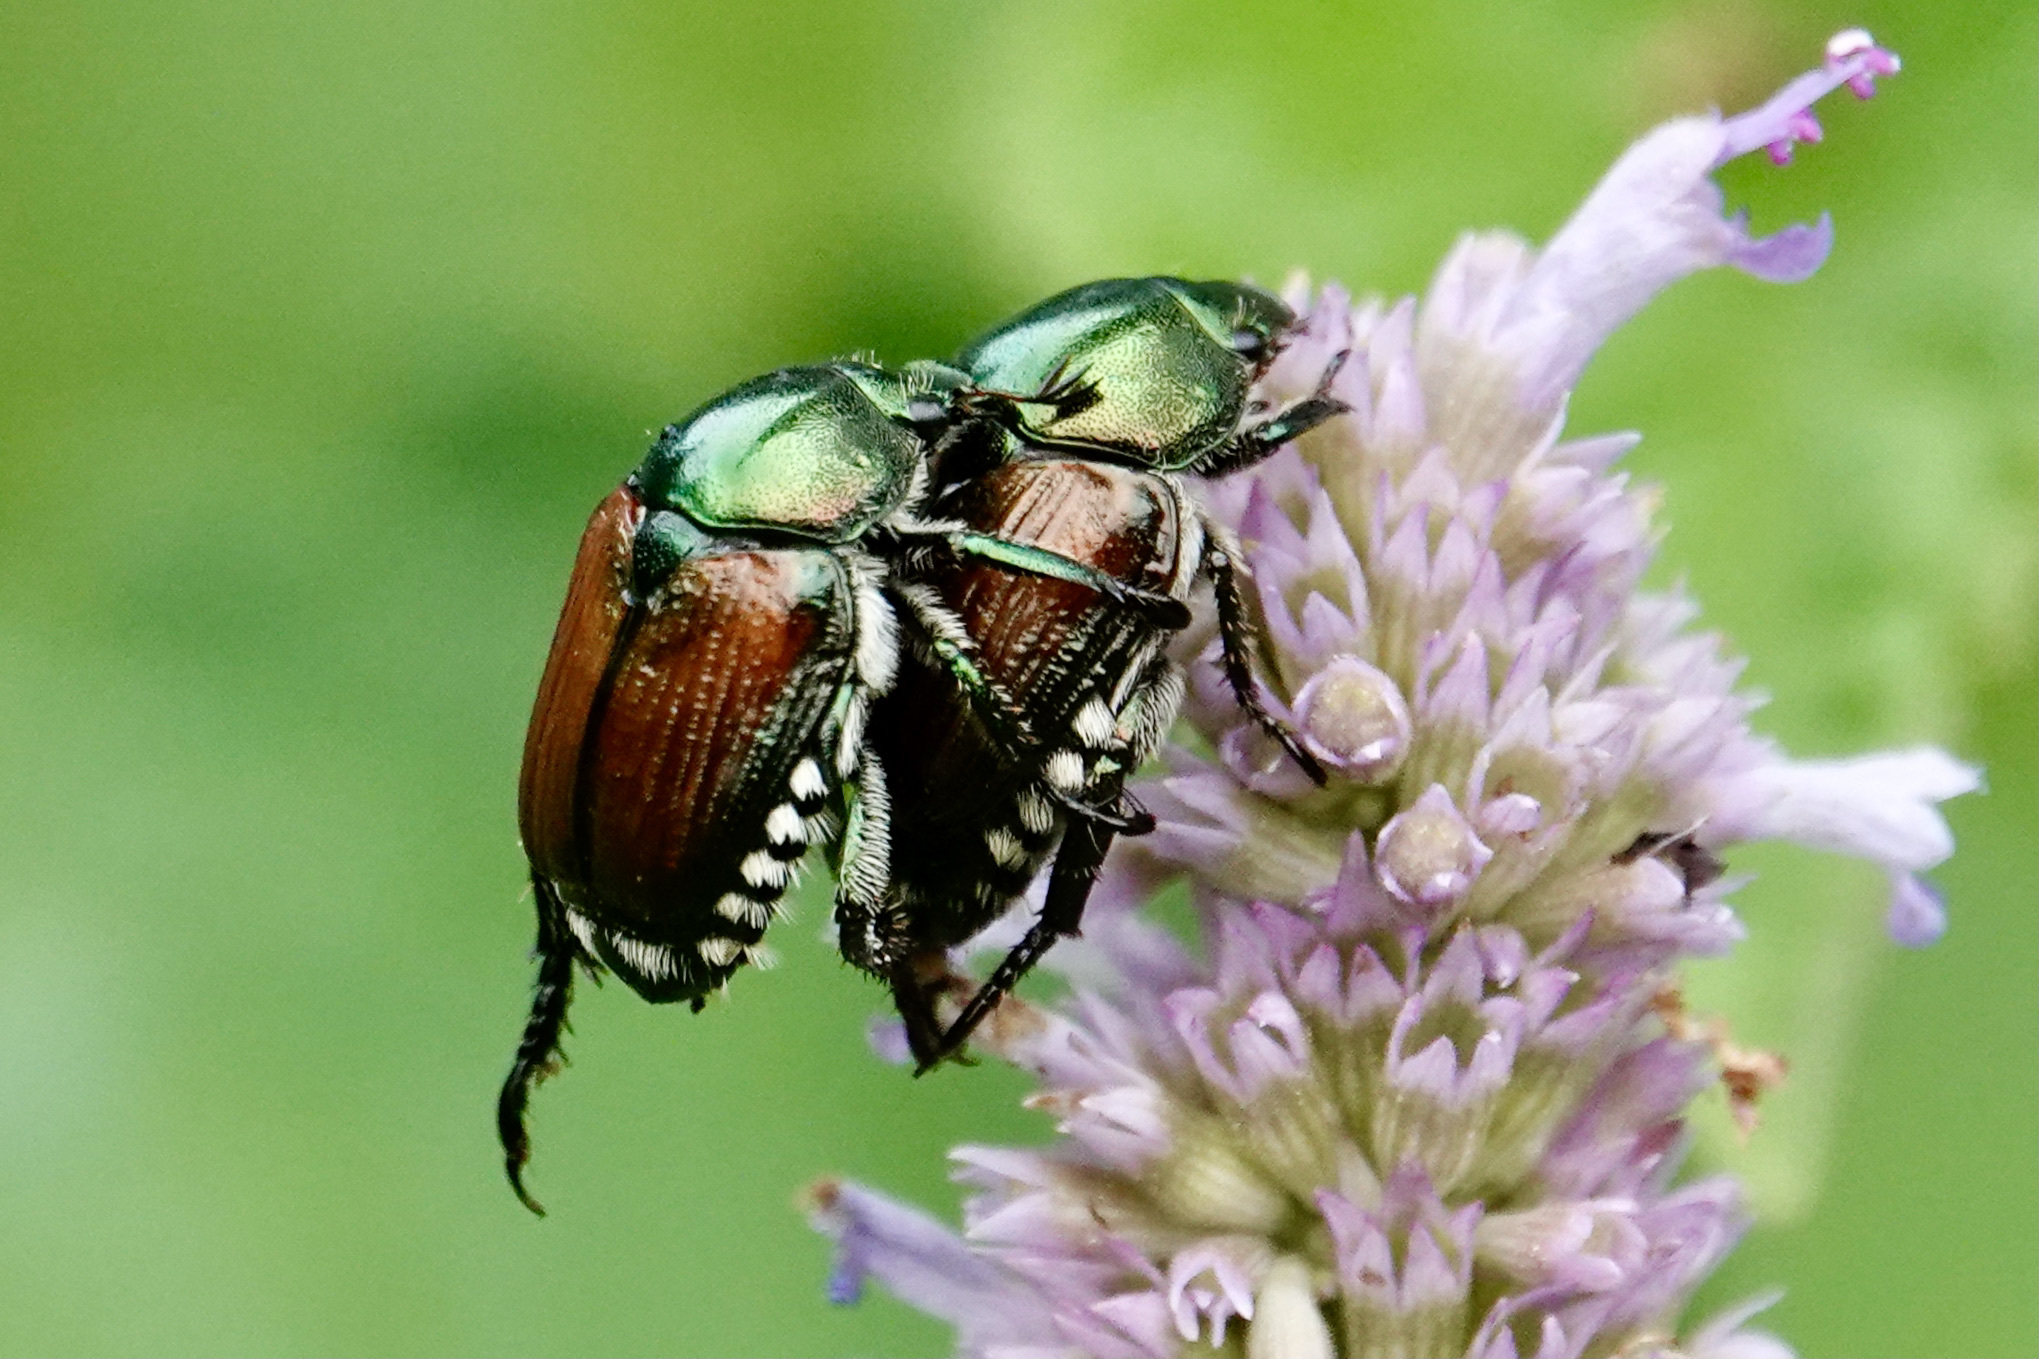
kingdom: Animalia
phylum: Arthropoda
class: Insecta
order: Coleoptera
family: Scarabaeidae
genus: Popillia
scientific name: Popillia japonica
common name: Japanese beetle
